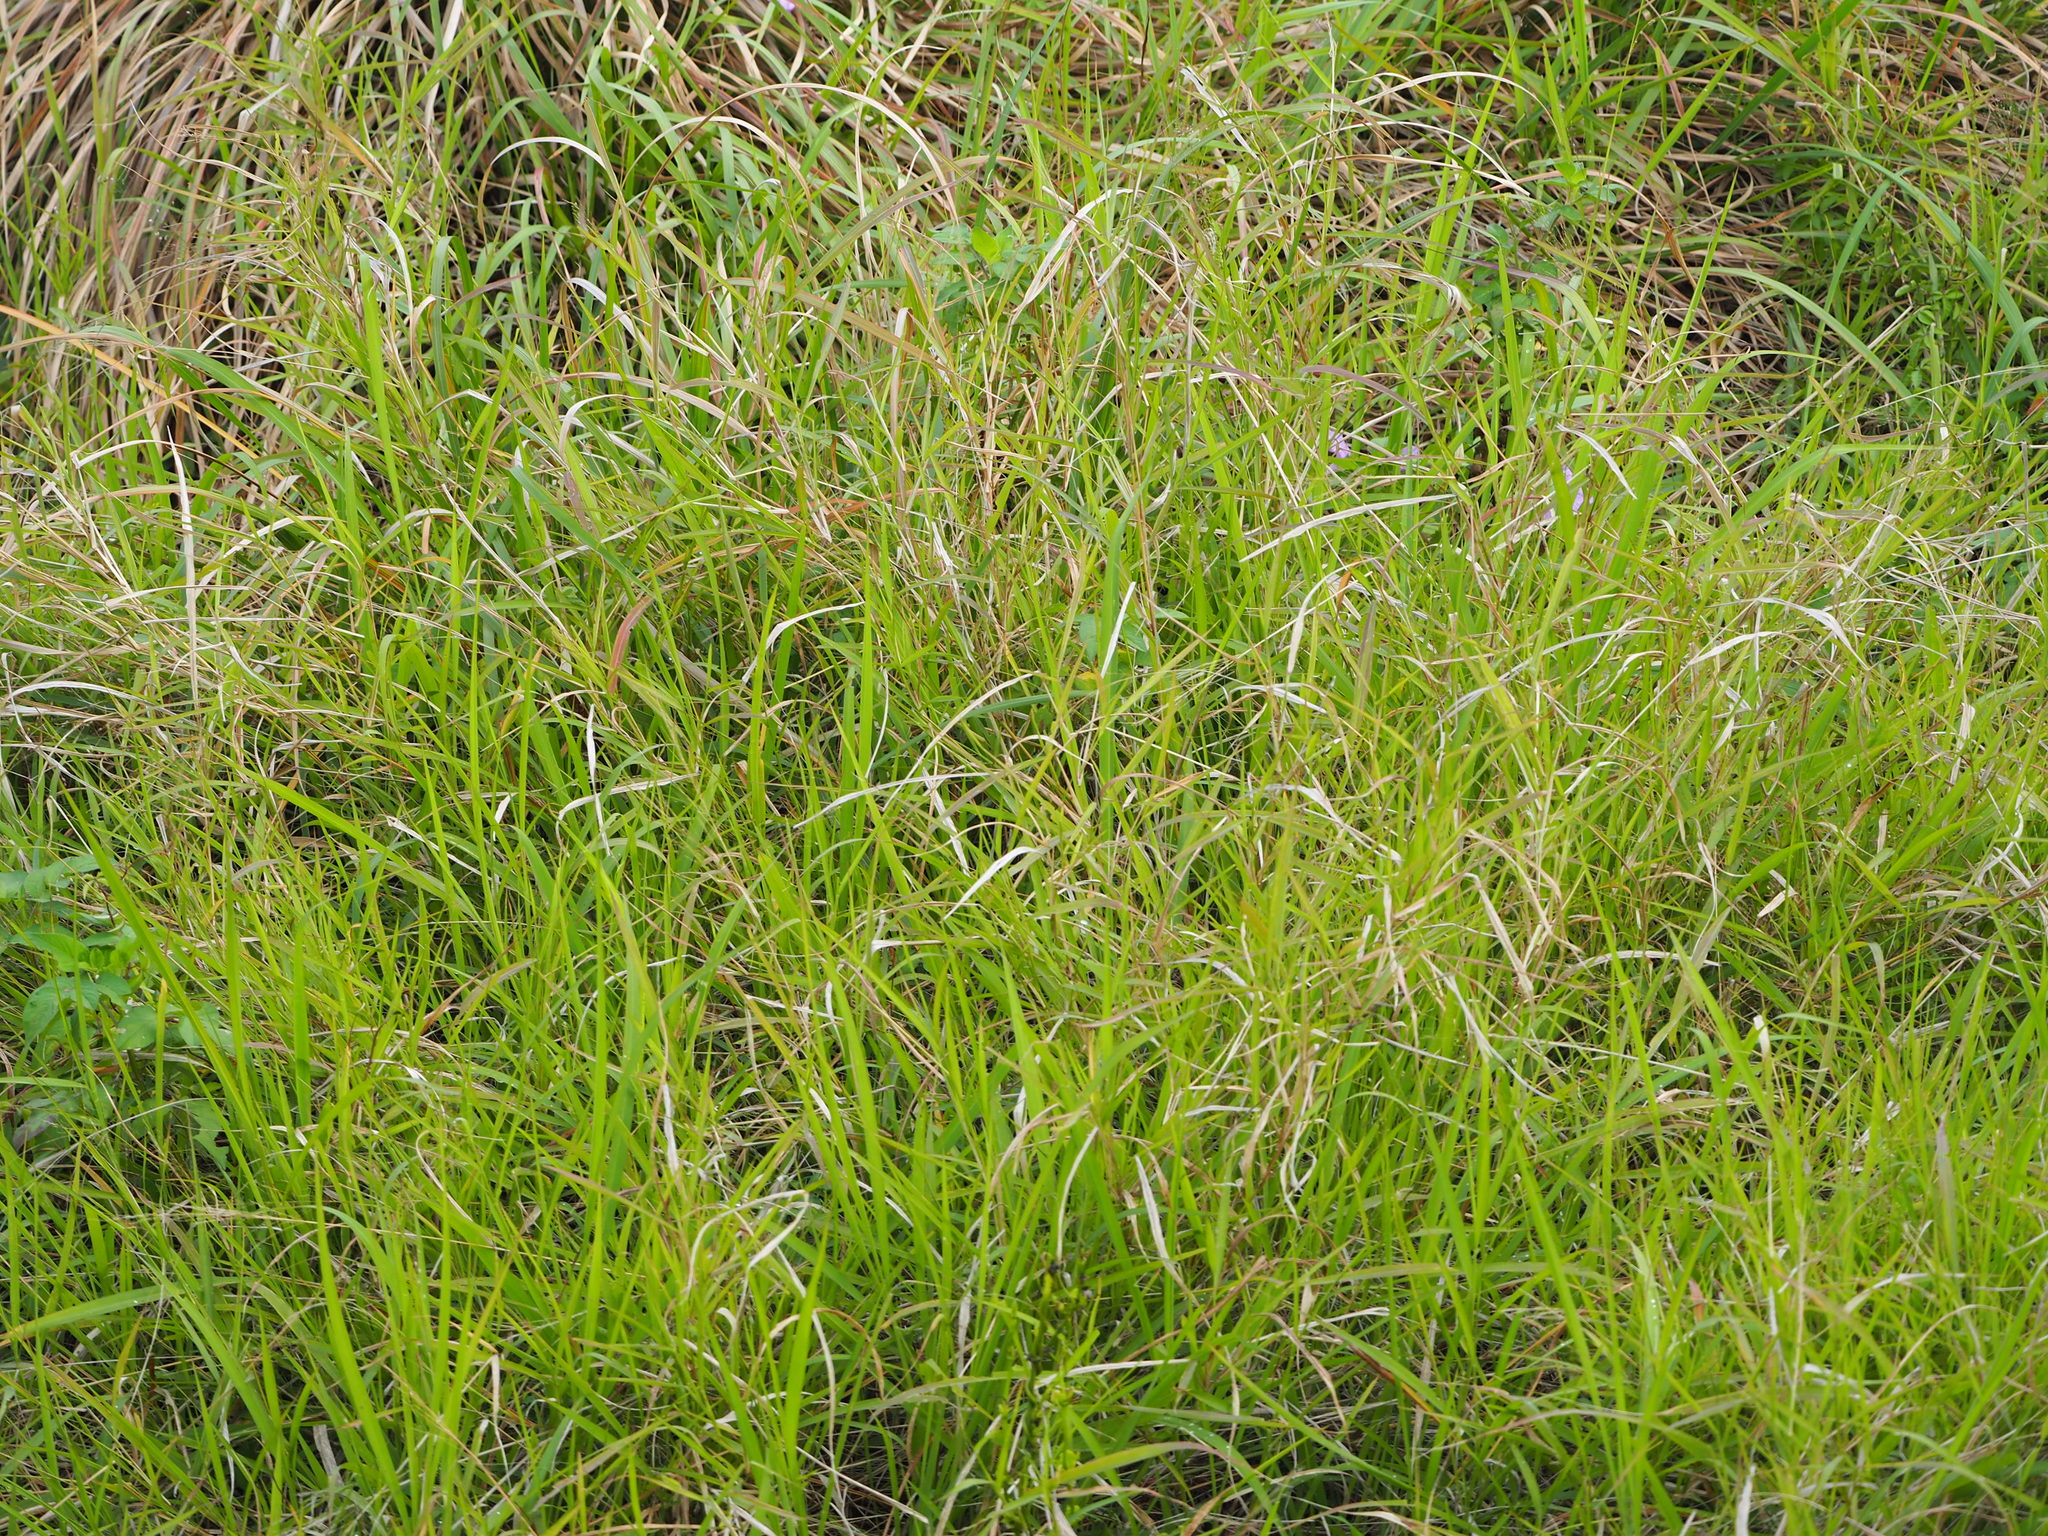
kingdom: Plantae
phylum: Tracheophyta
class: Liliopsida
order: Poales
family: Poaceae
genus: Imperata
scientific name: Imperata cylindrica
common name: Cogongrass
